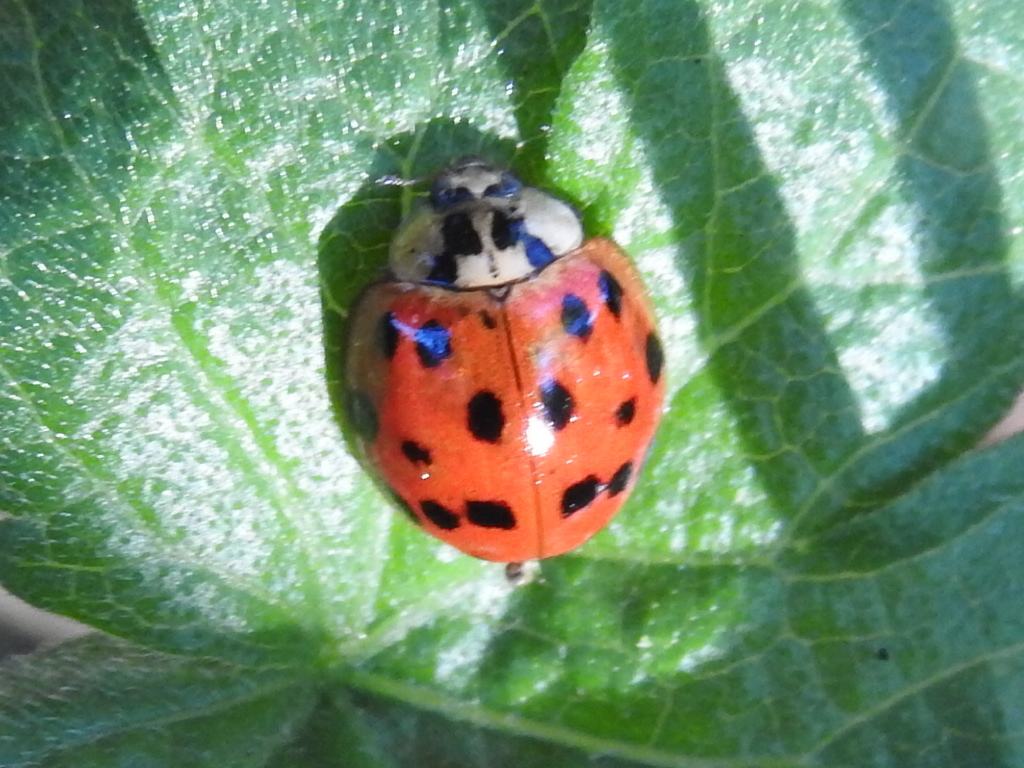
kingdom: Animalia
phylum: Arthropoda
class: Insecta
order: Coleoptera
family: Coccinellidae
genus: Harmonia
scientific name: Harmonia axyridis
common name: Harlequin ladybird
